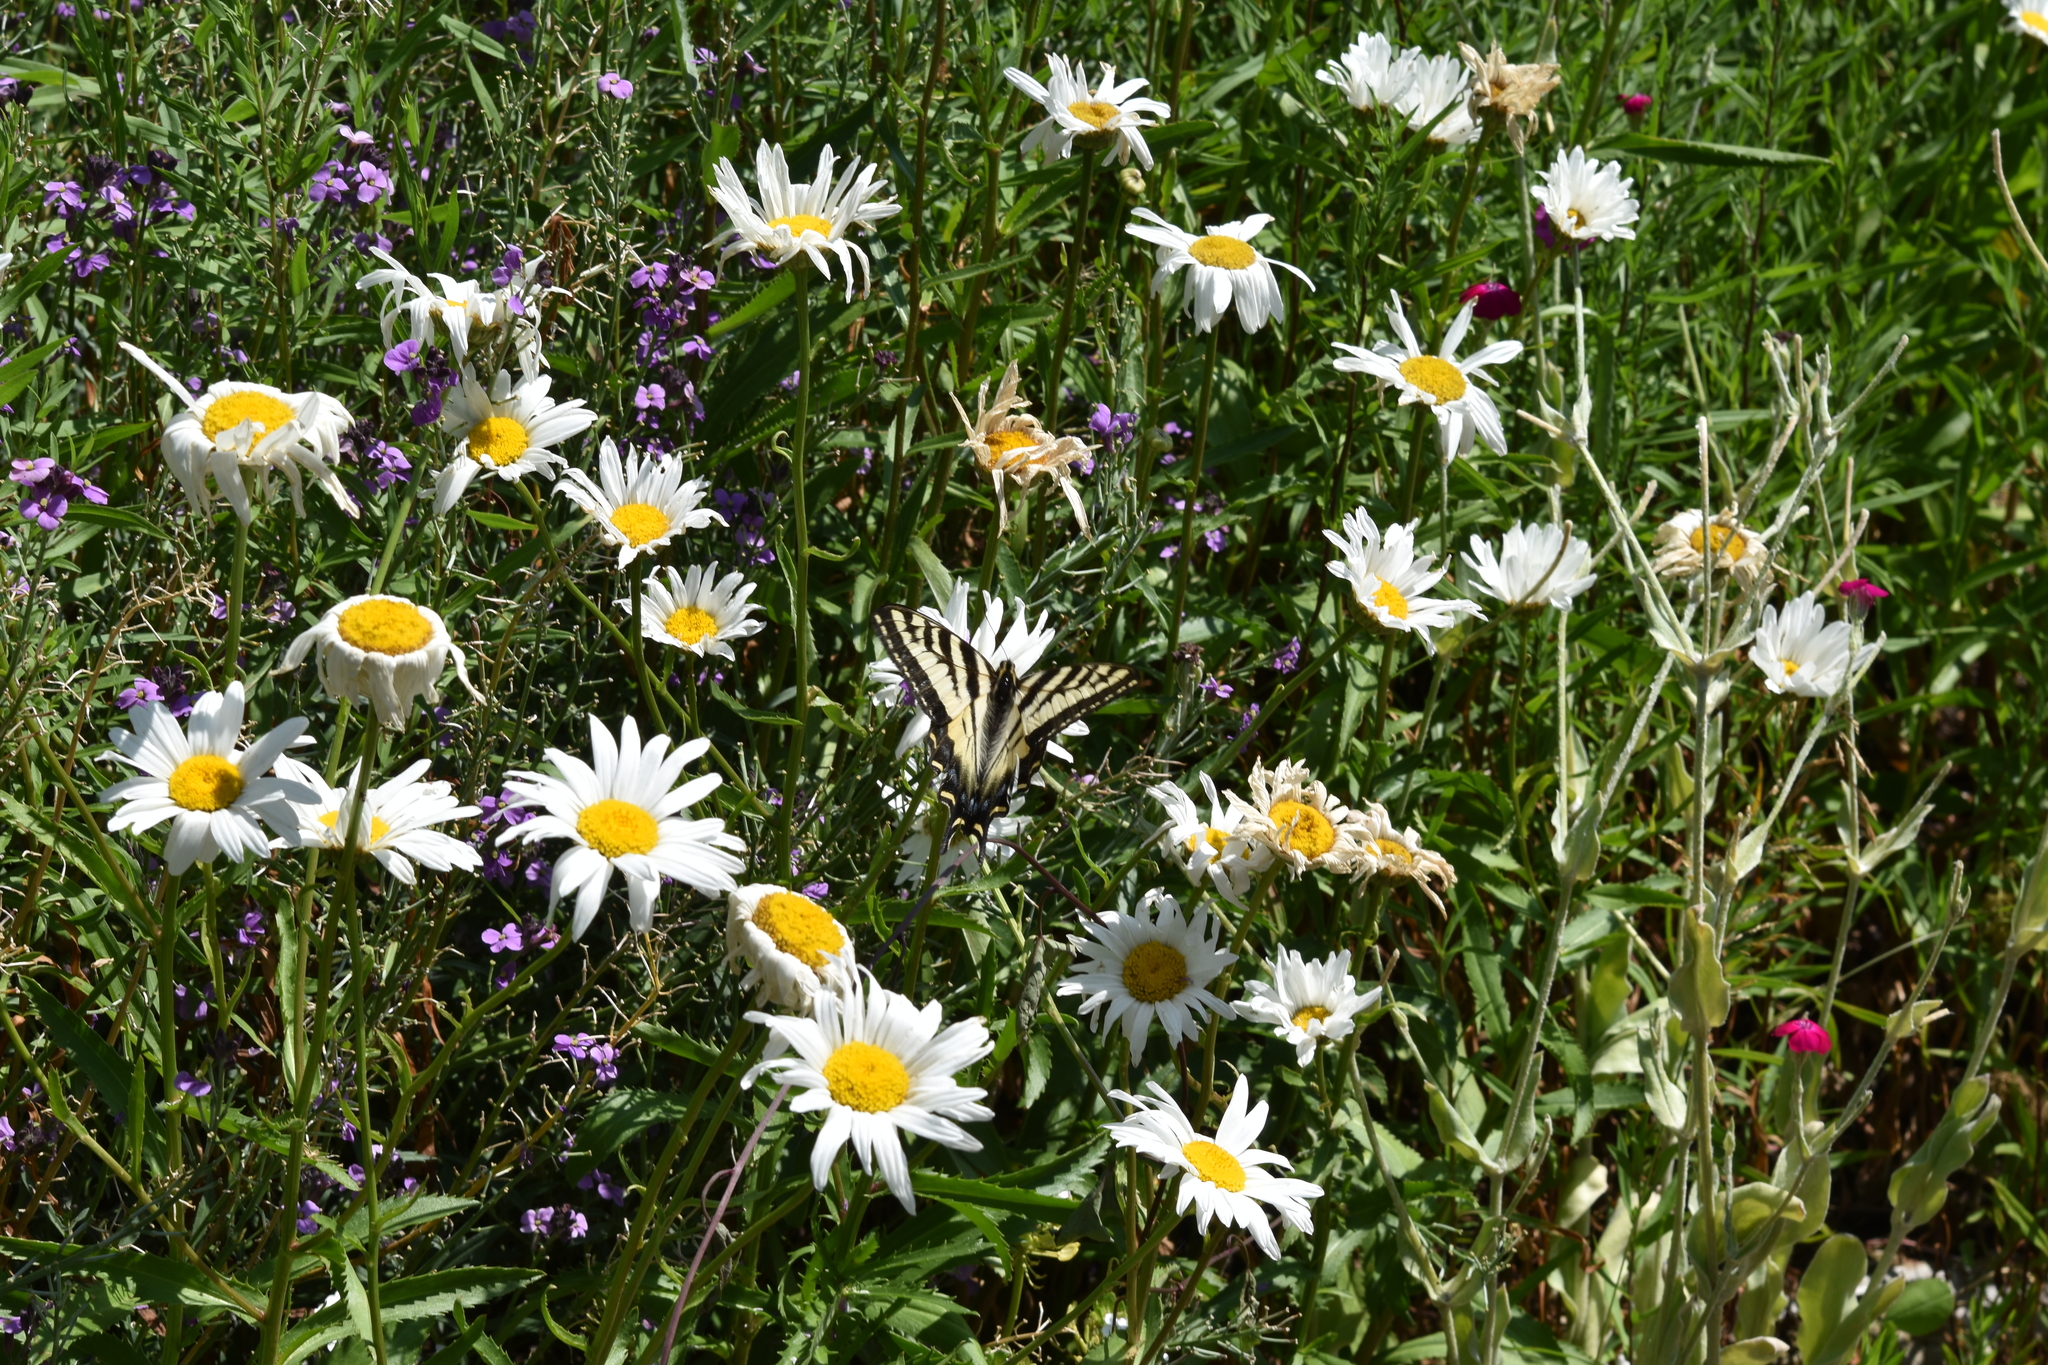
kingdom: Animalia
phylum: Arthropoda
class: Insecta
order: Lepidoptera
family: Papilionidae
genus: Papilio
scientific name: Papilio eurymedon
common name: Pale tiger swallowtail
